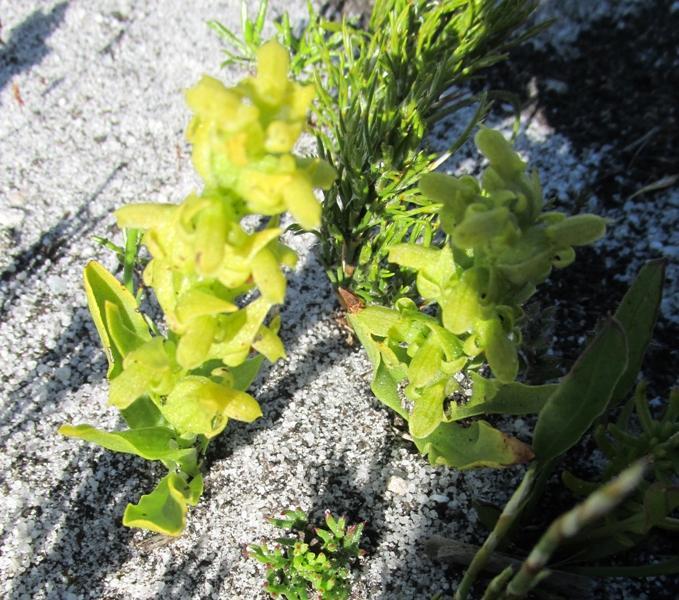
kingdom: Plantae
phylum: Tracheophyta
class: Liliopsida
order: Asparagales
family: Orchidaceae
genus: Disa
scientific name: Disa cylindrica
